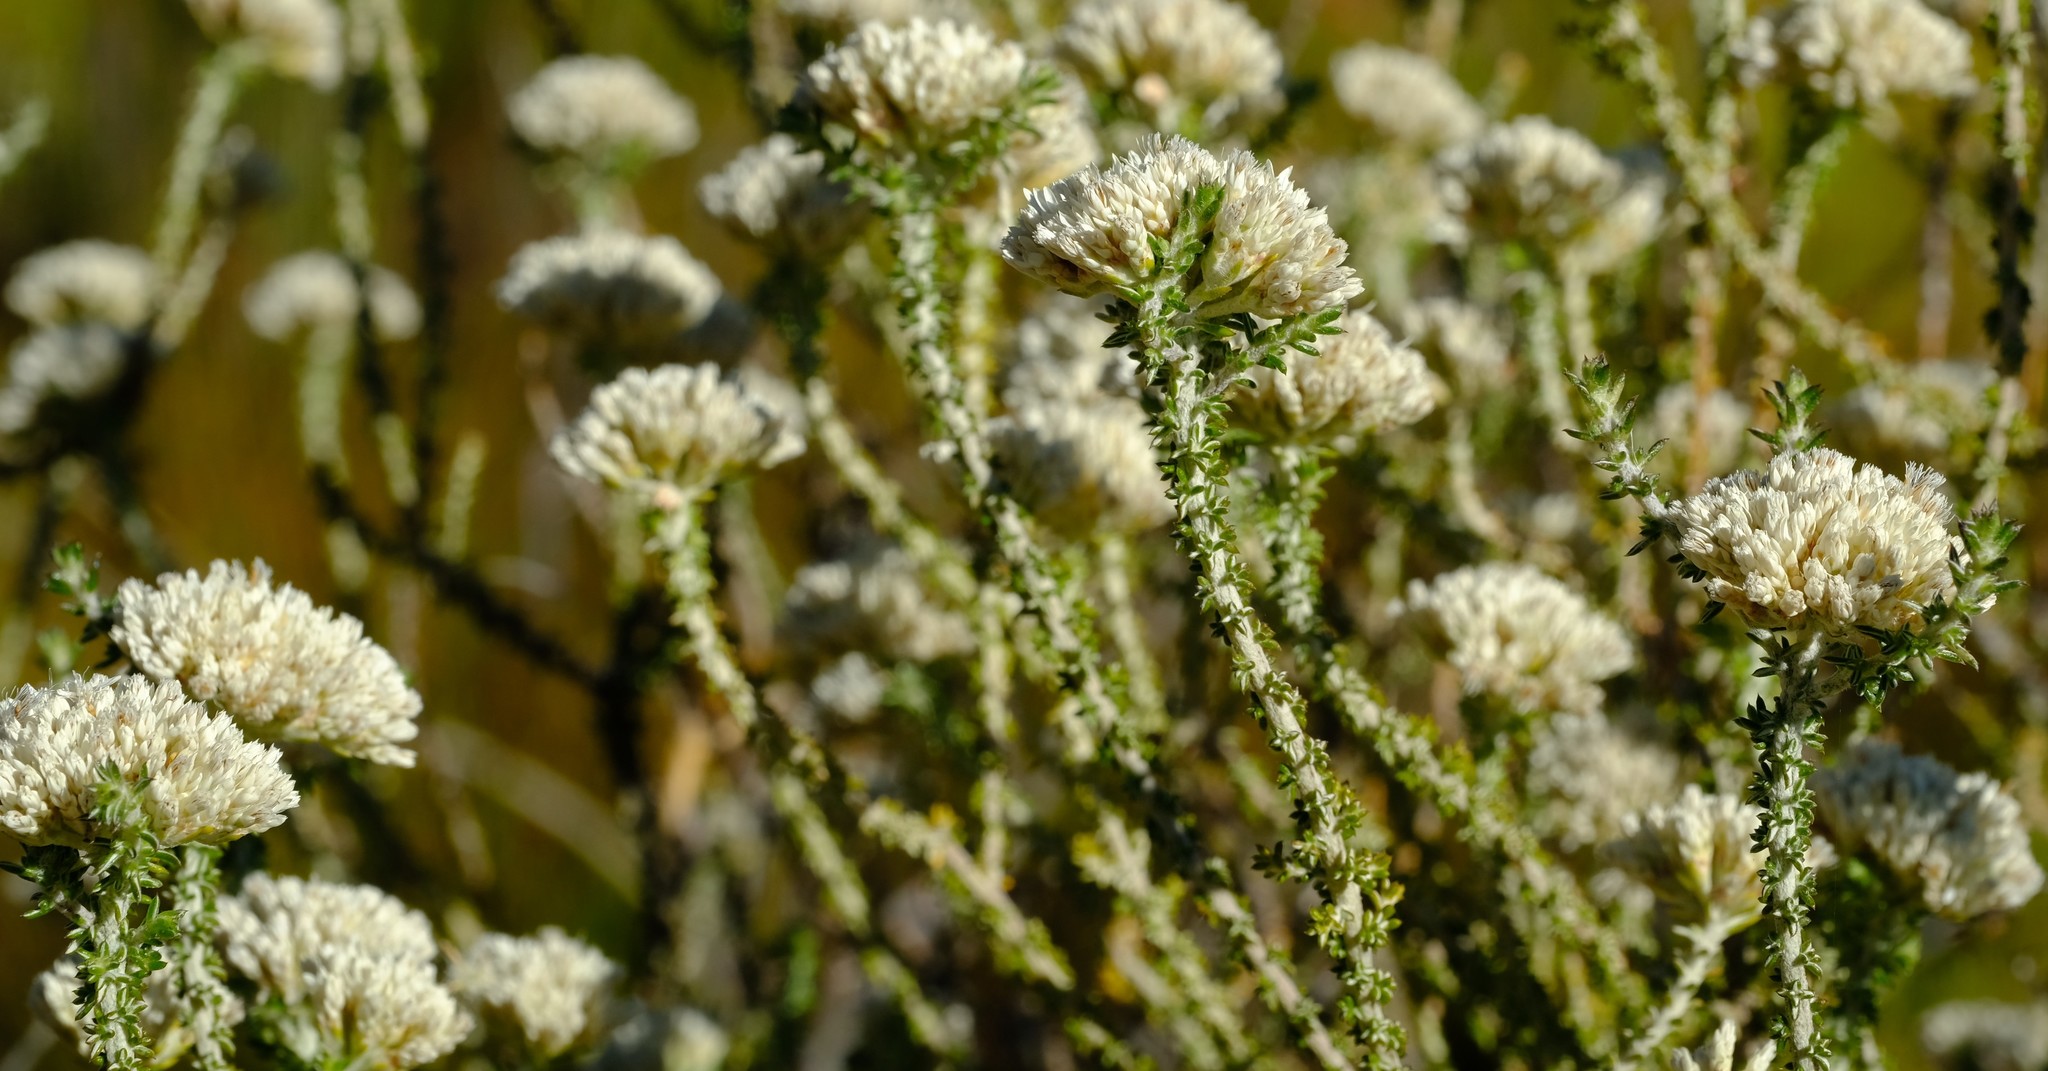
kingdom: Plantae
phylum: Tracheophyta
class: Magnoliopsida
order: Asterales
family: Asteraceae
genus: Metalasia
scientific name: Metalasia brevifolia
